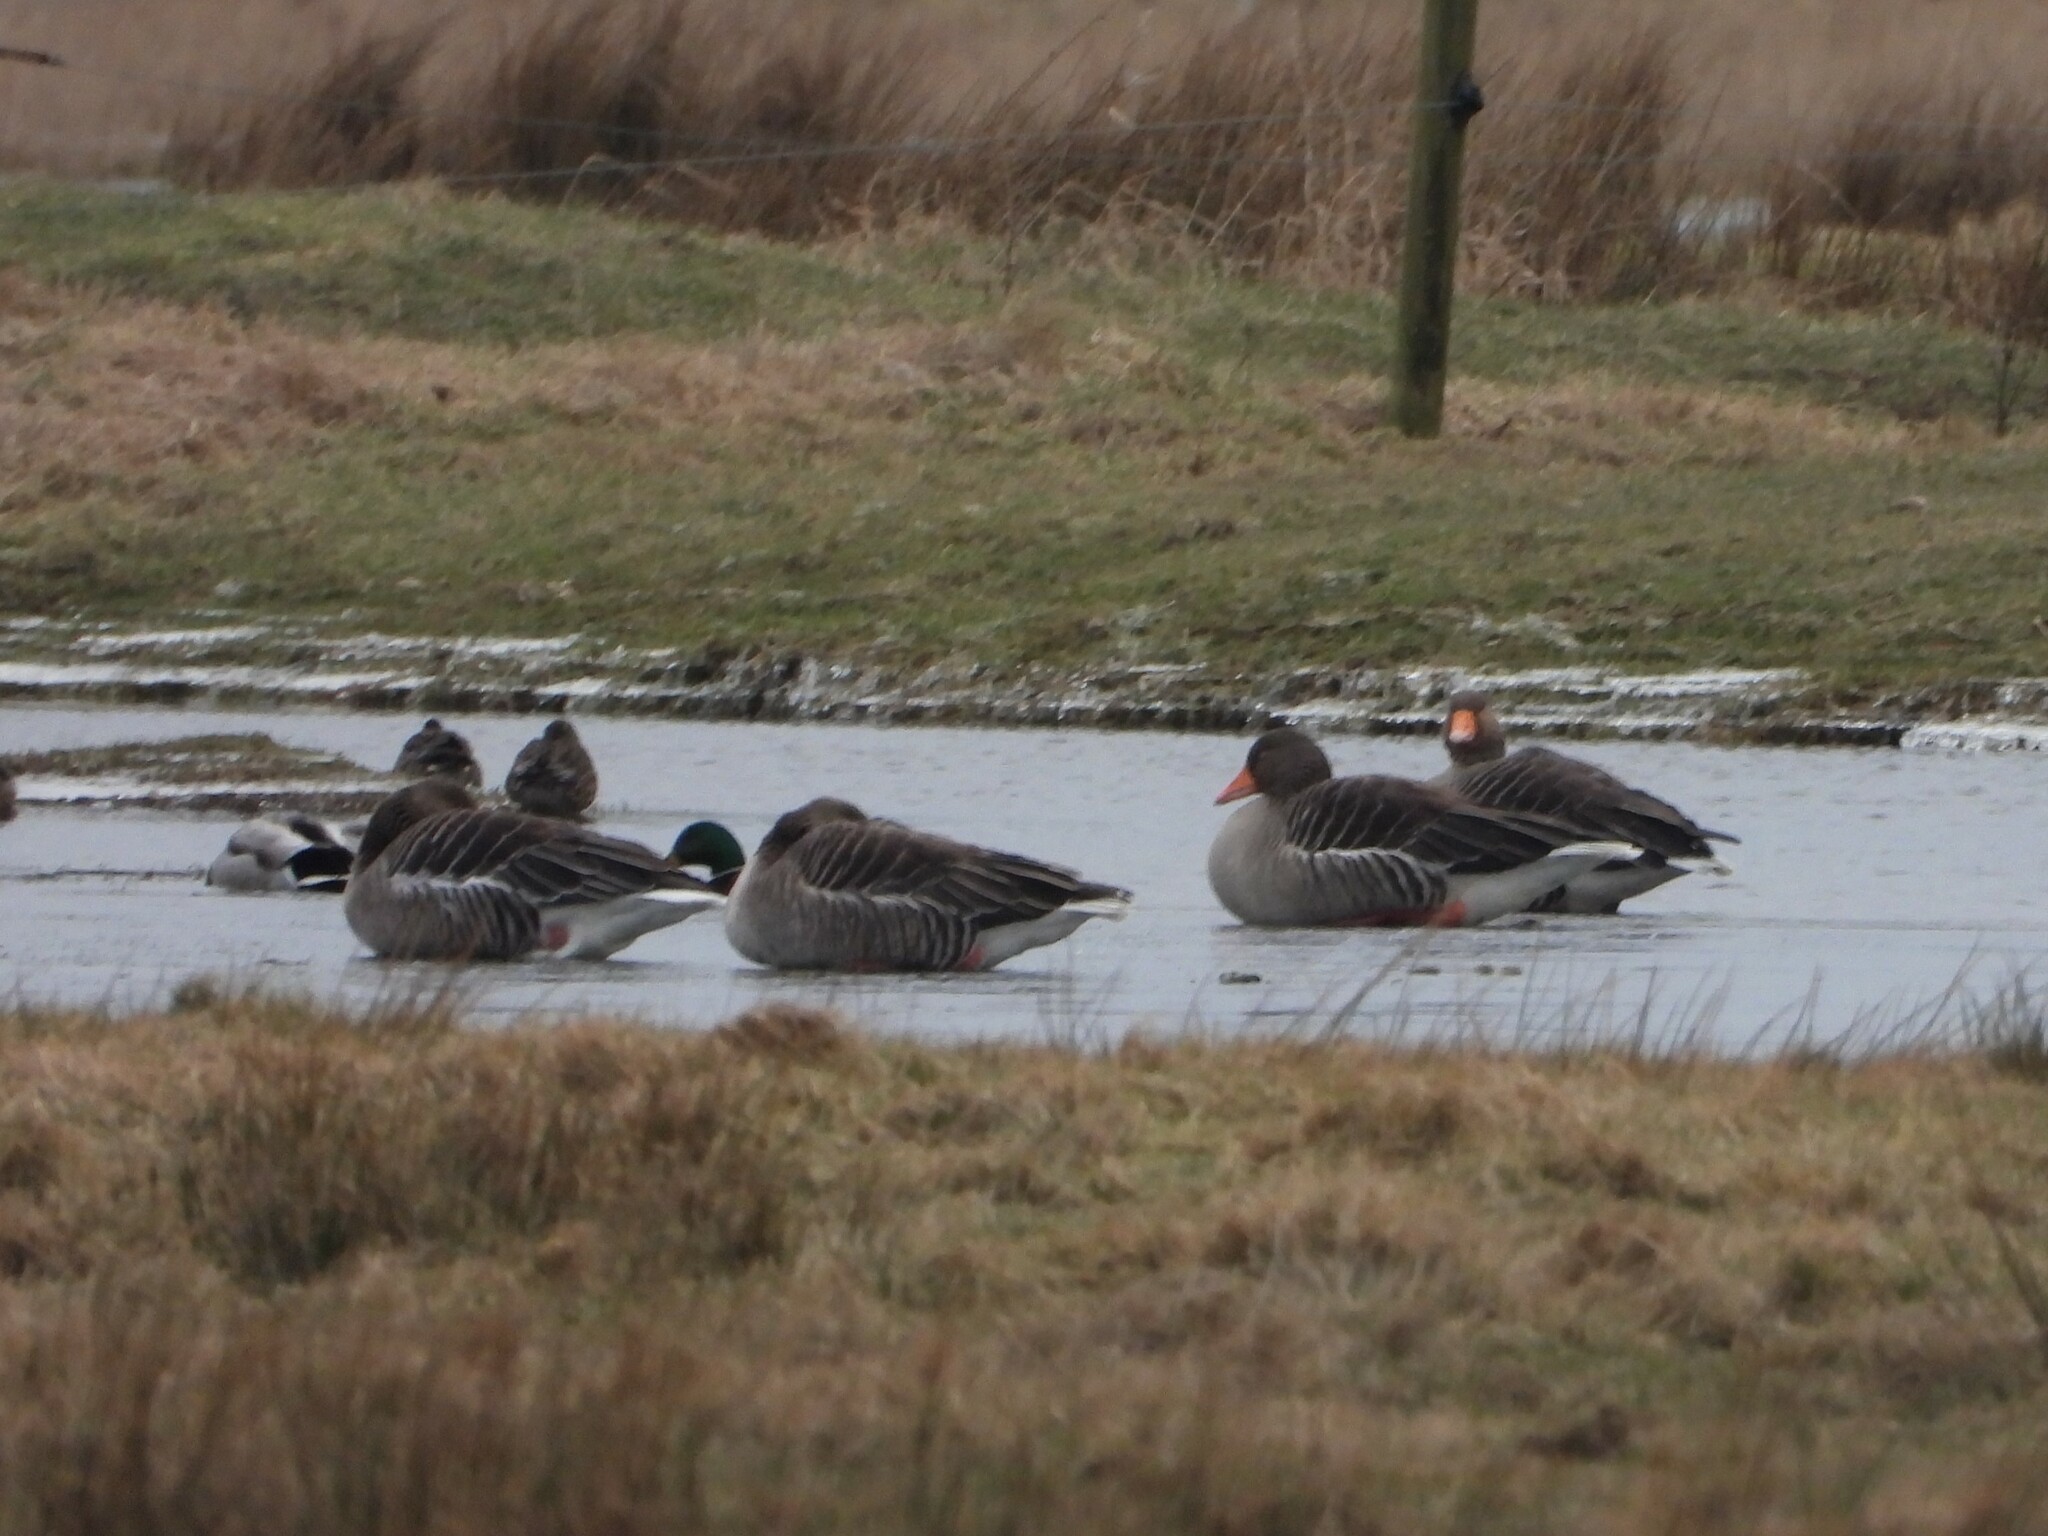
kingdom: Animalia
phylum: Chordata
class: Aves
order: Anseriformes
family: Anatidae
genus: Anser
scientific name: Anser anser
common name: Greylag goose
